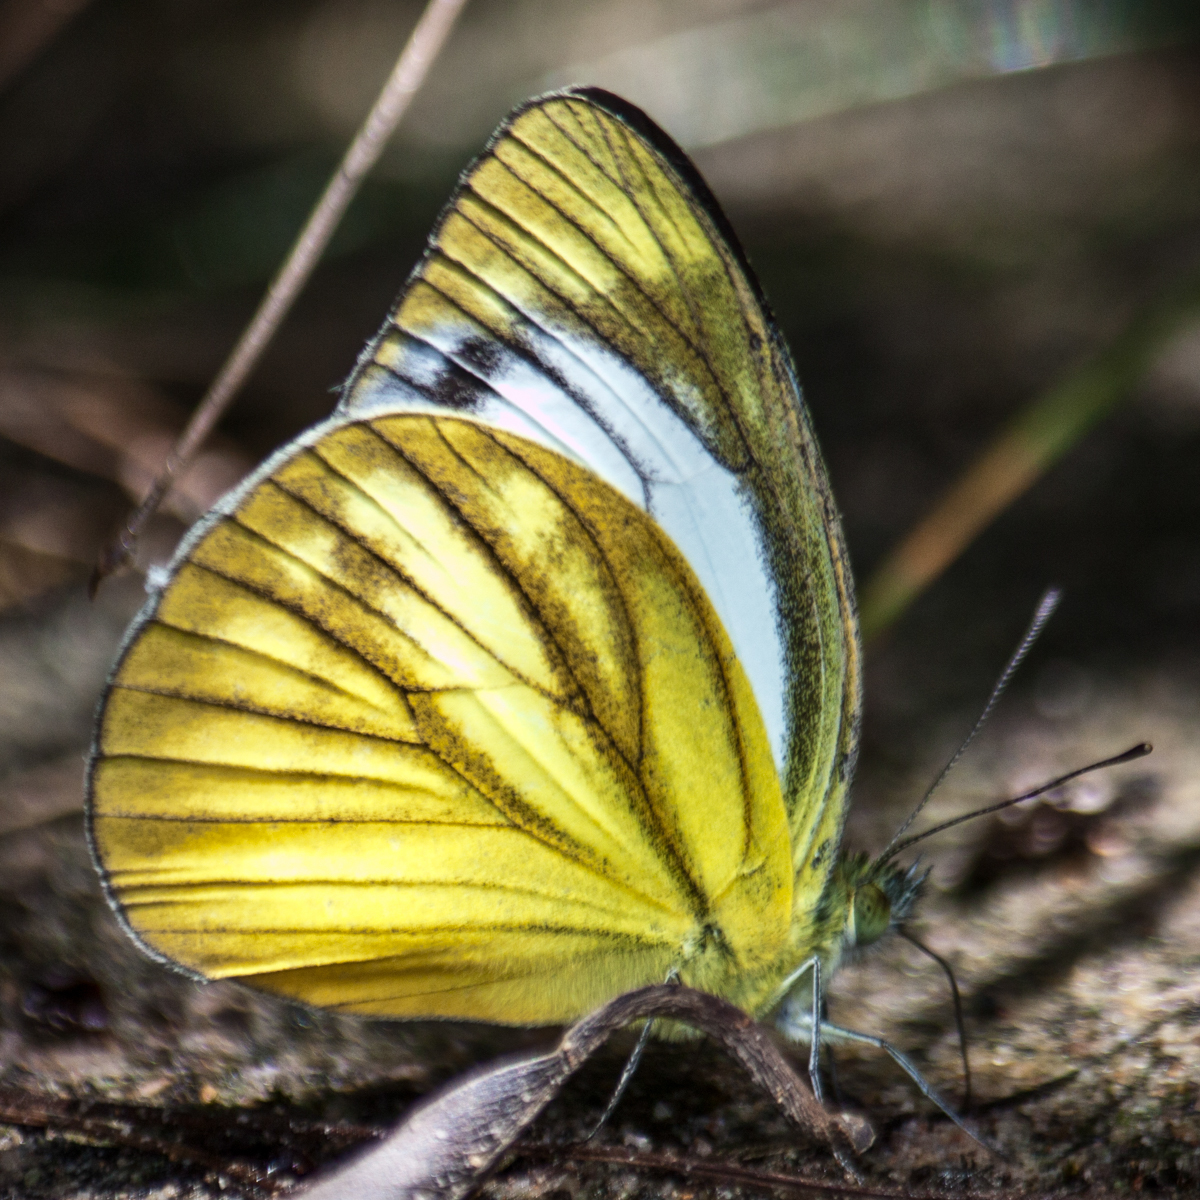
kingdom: Animalia
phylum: Arthropoda
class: Insecta
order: Lepidoptera
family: Pieridae
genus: Cepora
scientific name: Cepora nadina
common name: Lesser gull
